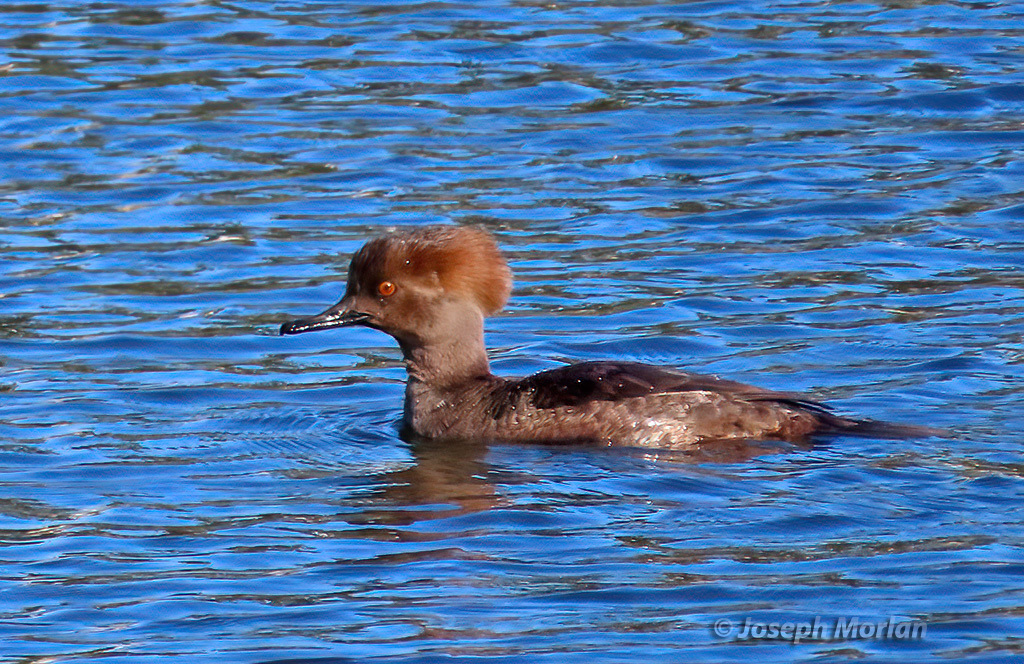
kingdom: Animalia
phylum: Chordata
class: Aves
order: Anseriformes
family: Anatidae
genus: Lophodytes
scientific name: Lophodytes cucullatus
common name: Hooded merganser
